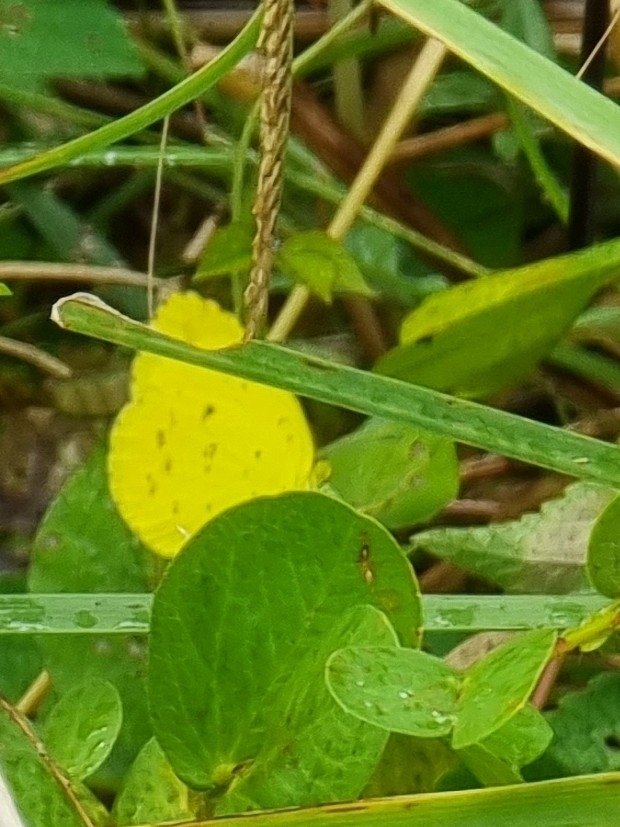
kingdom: Animalia
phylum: Arthropoda
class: Insecta
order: Lepidoptera
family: Pieridae
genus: Eurema
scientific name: Eurema hecabe
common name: Pale grass yellow
